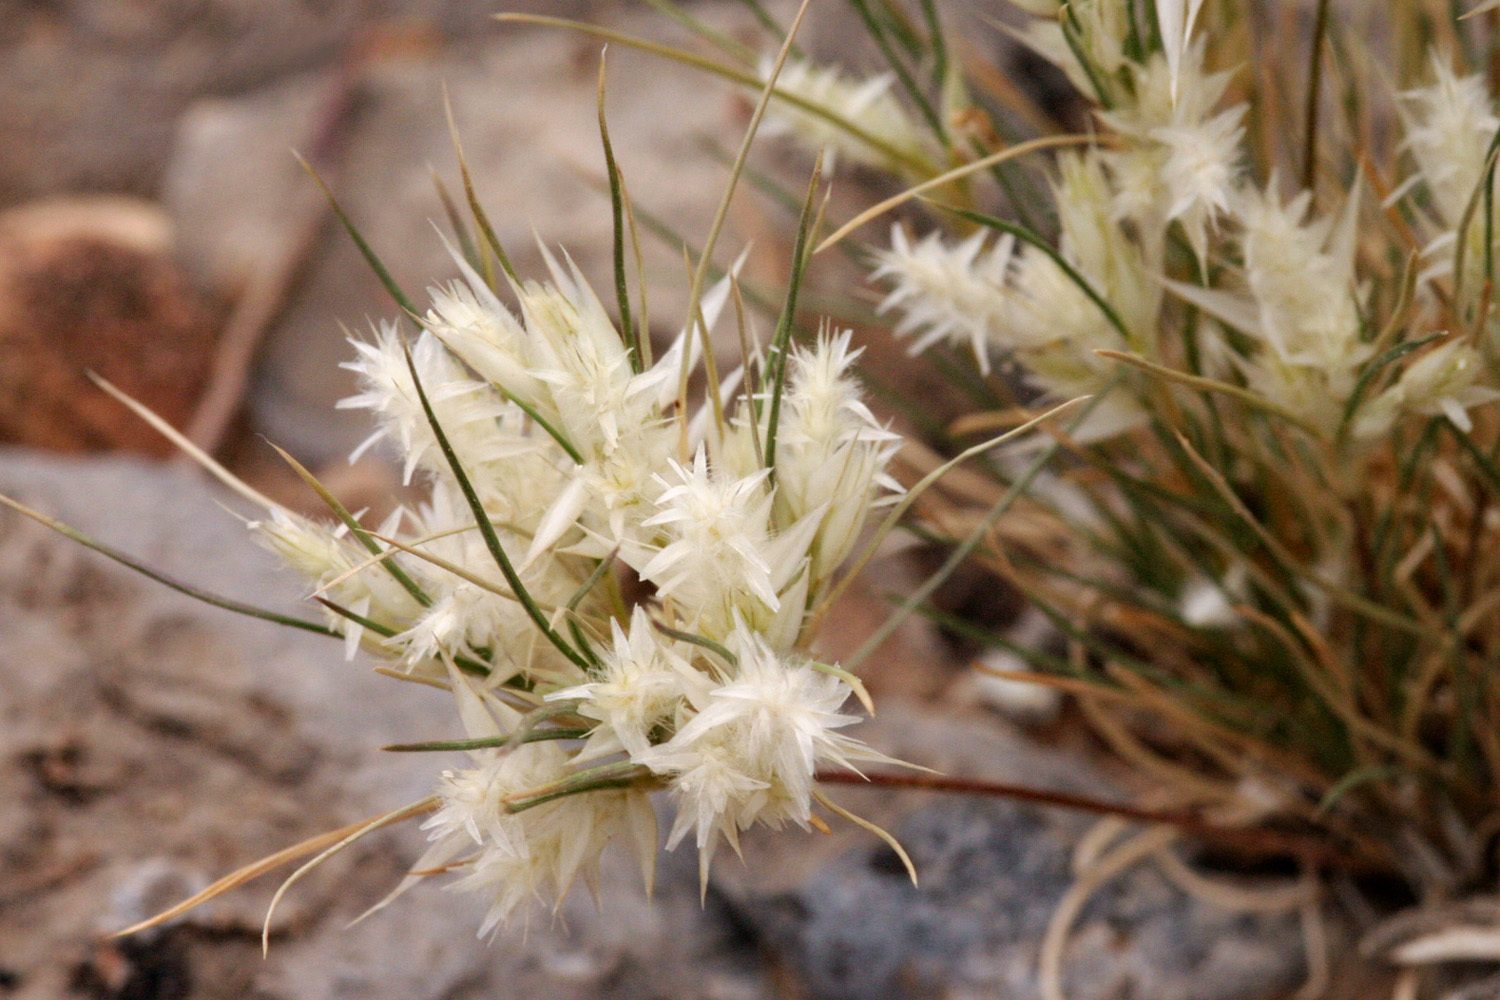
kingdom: Plantae
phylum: Tracheophyta
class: Liliopsida
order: Poales
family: Poaceae
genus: Dasyochloa
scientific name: Dasyochloa pulchella
